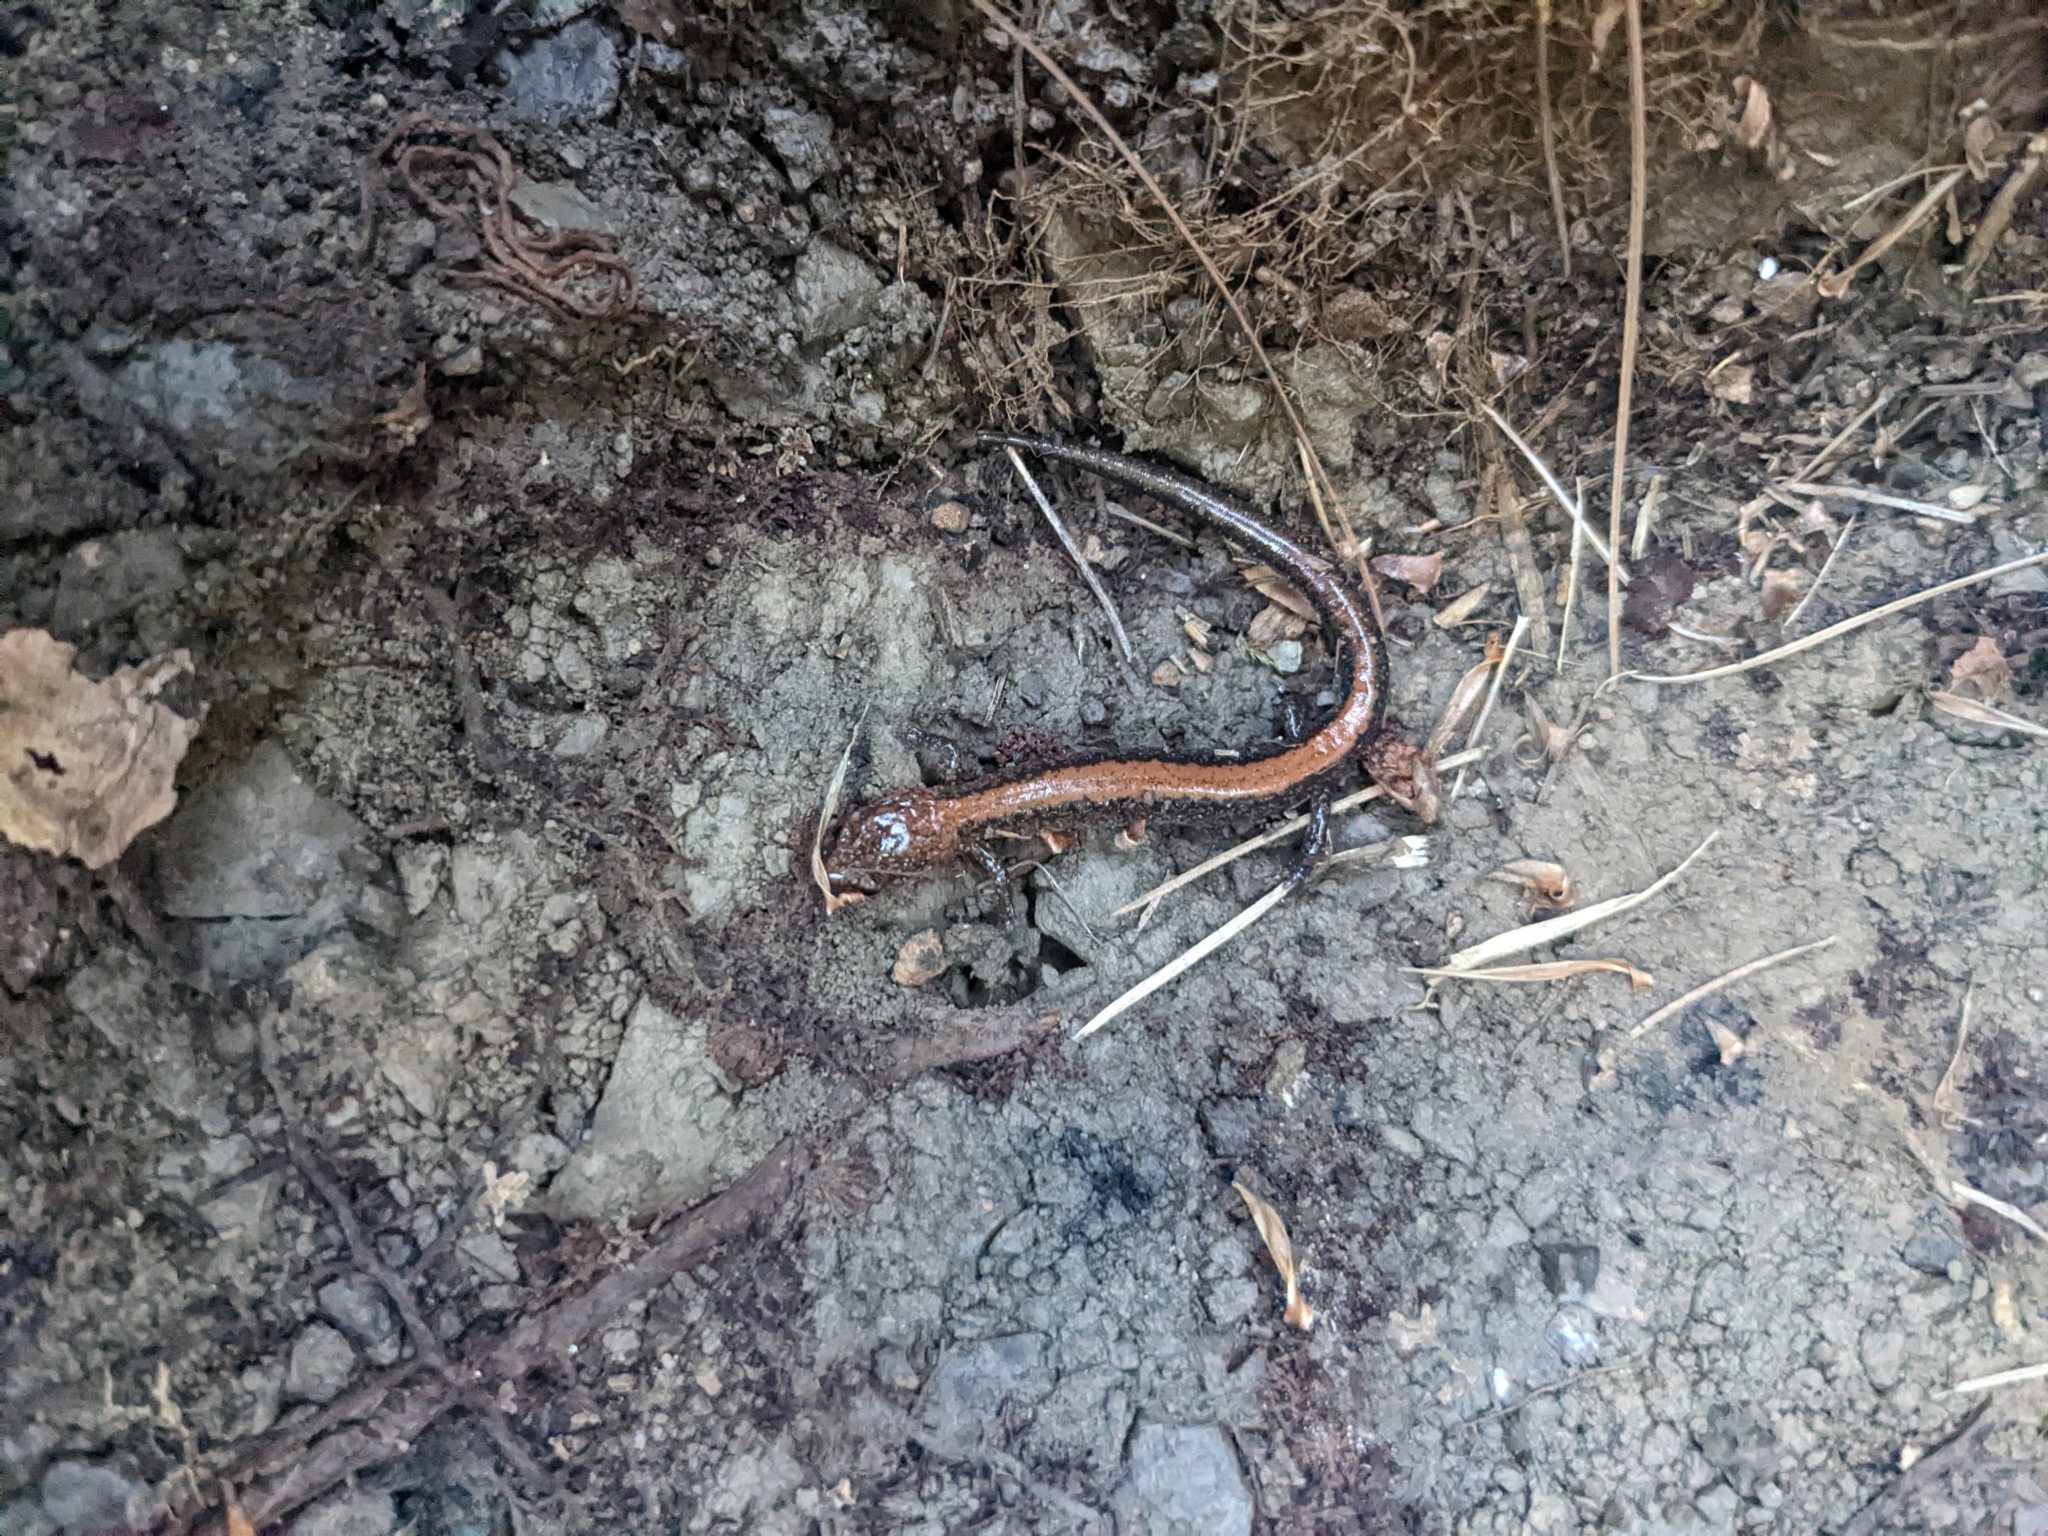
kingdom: Animalia
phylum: Chordata
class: Amphibia
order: Caudata
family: Plethodontidae
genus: Plethodon
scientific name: Plethodon cinereus
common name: Redback salamander
